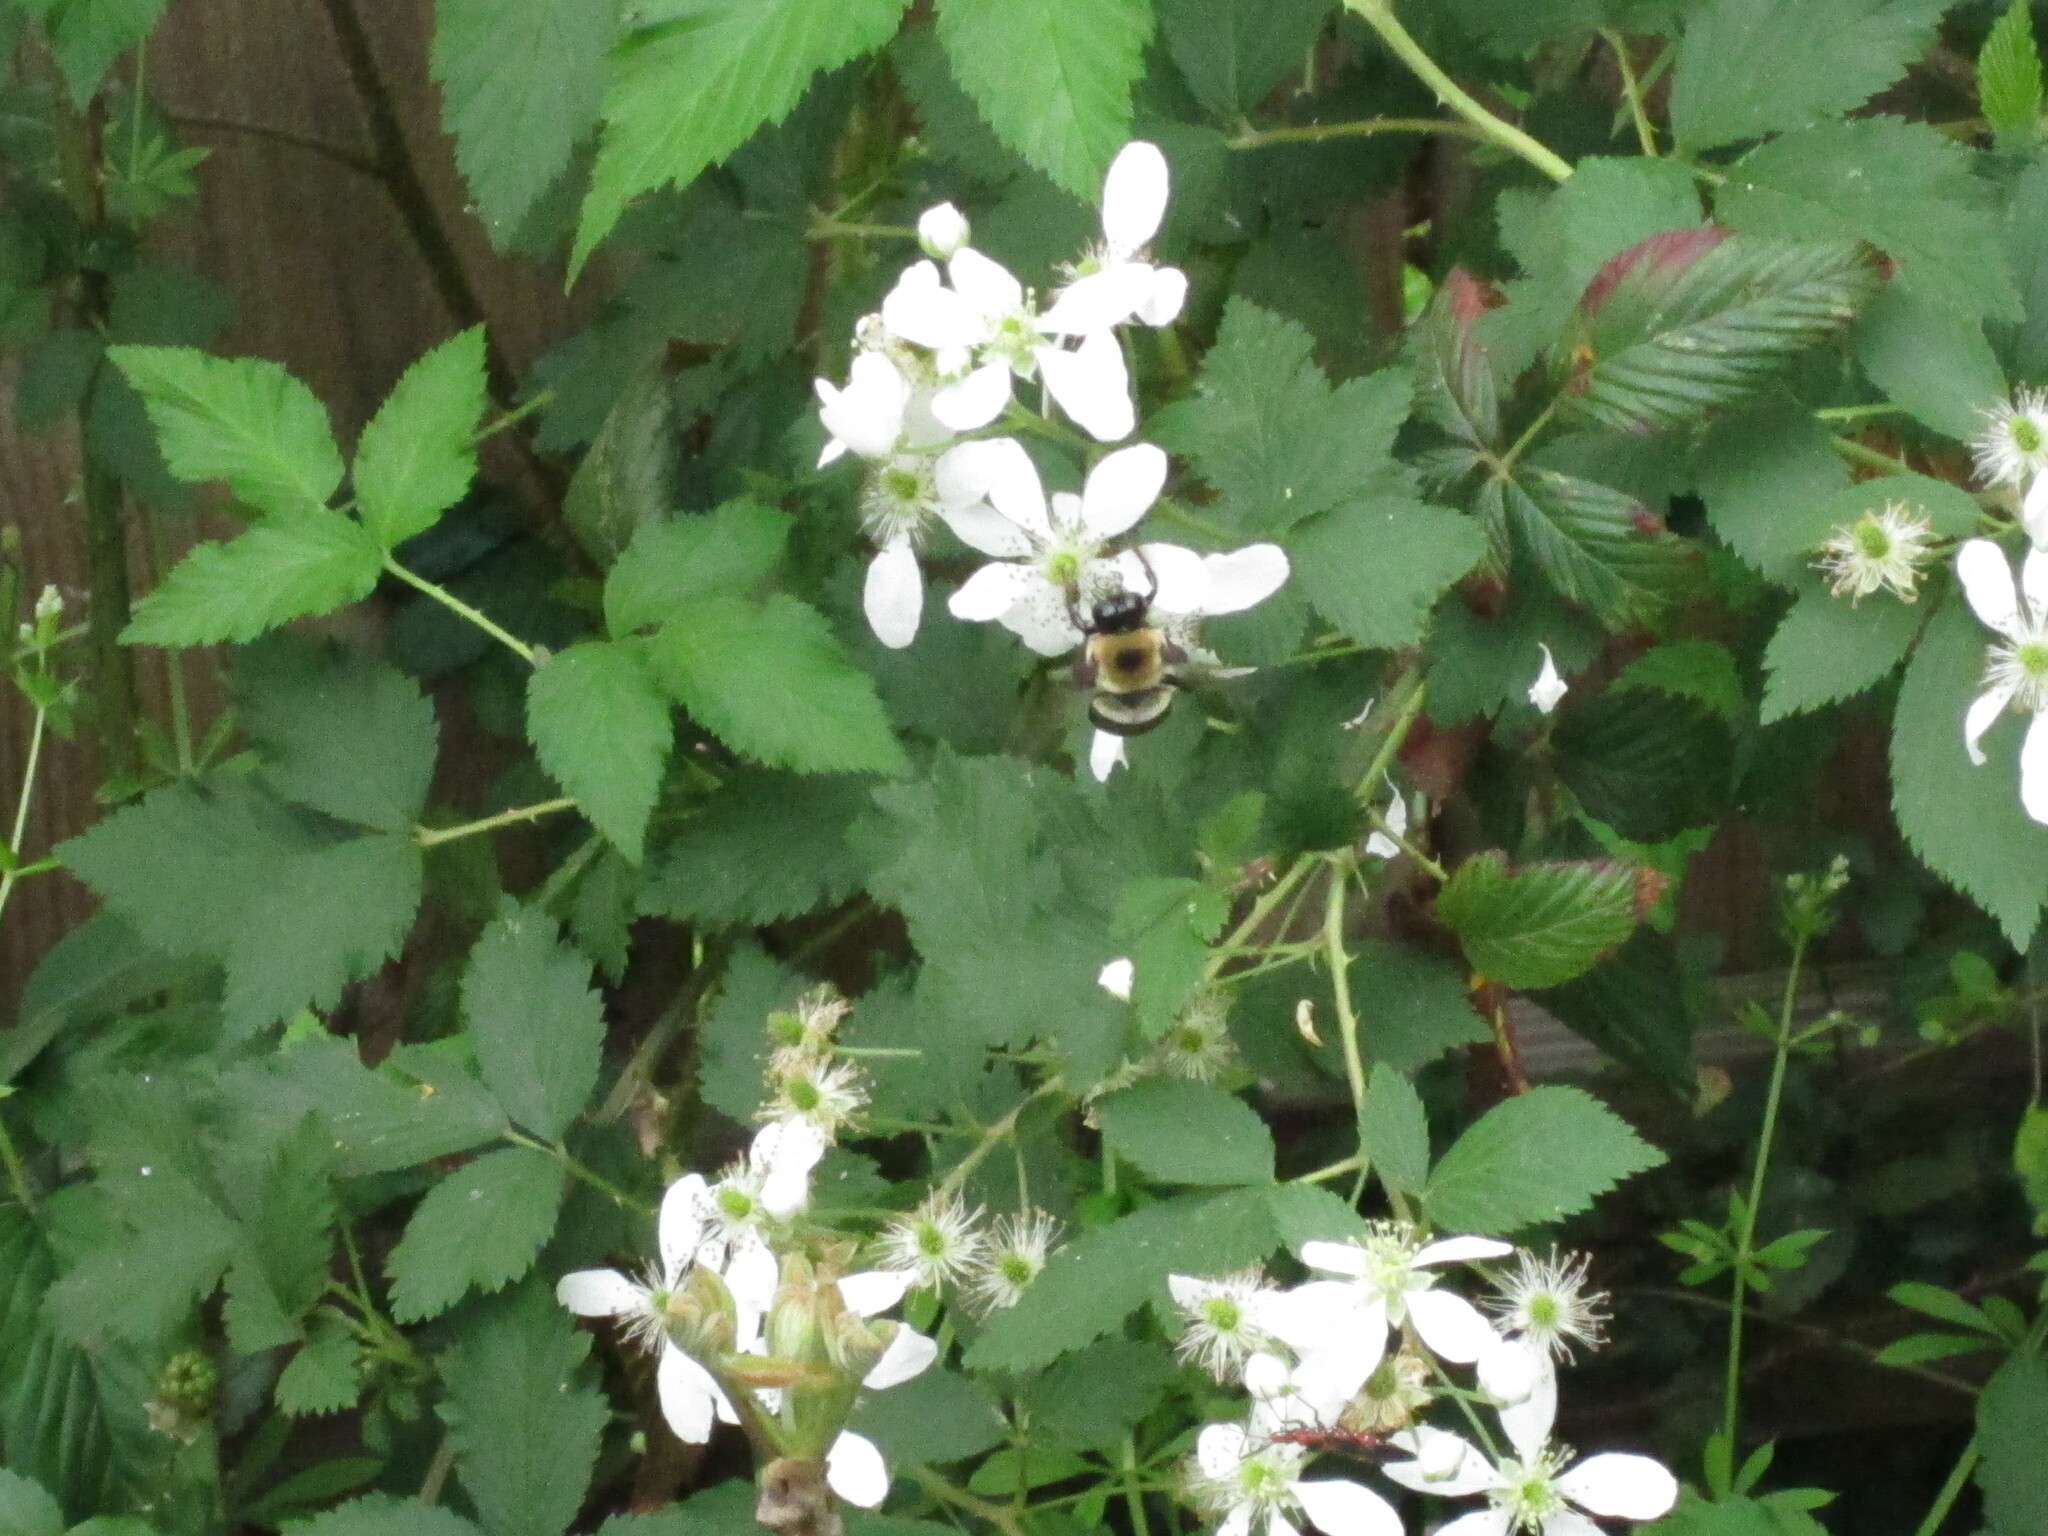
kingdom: Animalia
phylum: Arthropoda
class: Insecta
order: Hymenoptera
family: Apidae
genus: Xylocopa
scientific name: Xylocopa virginica
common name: Carpenter bee
